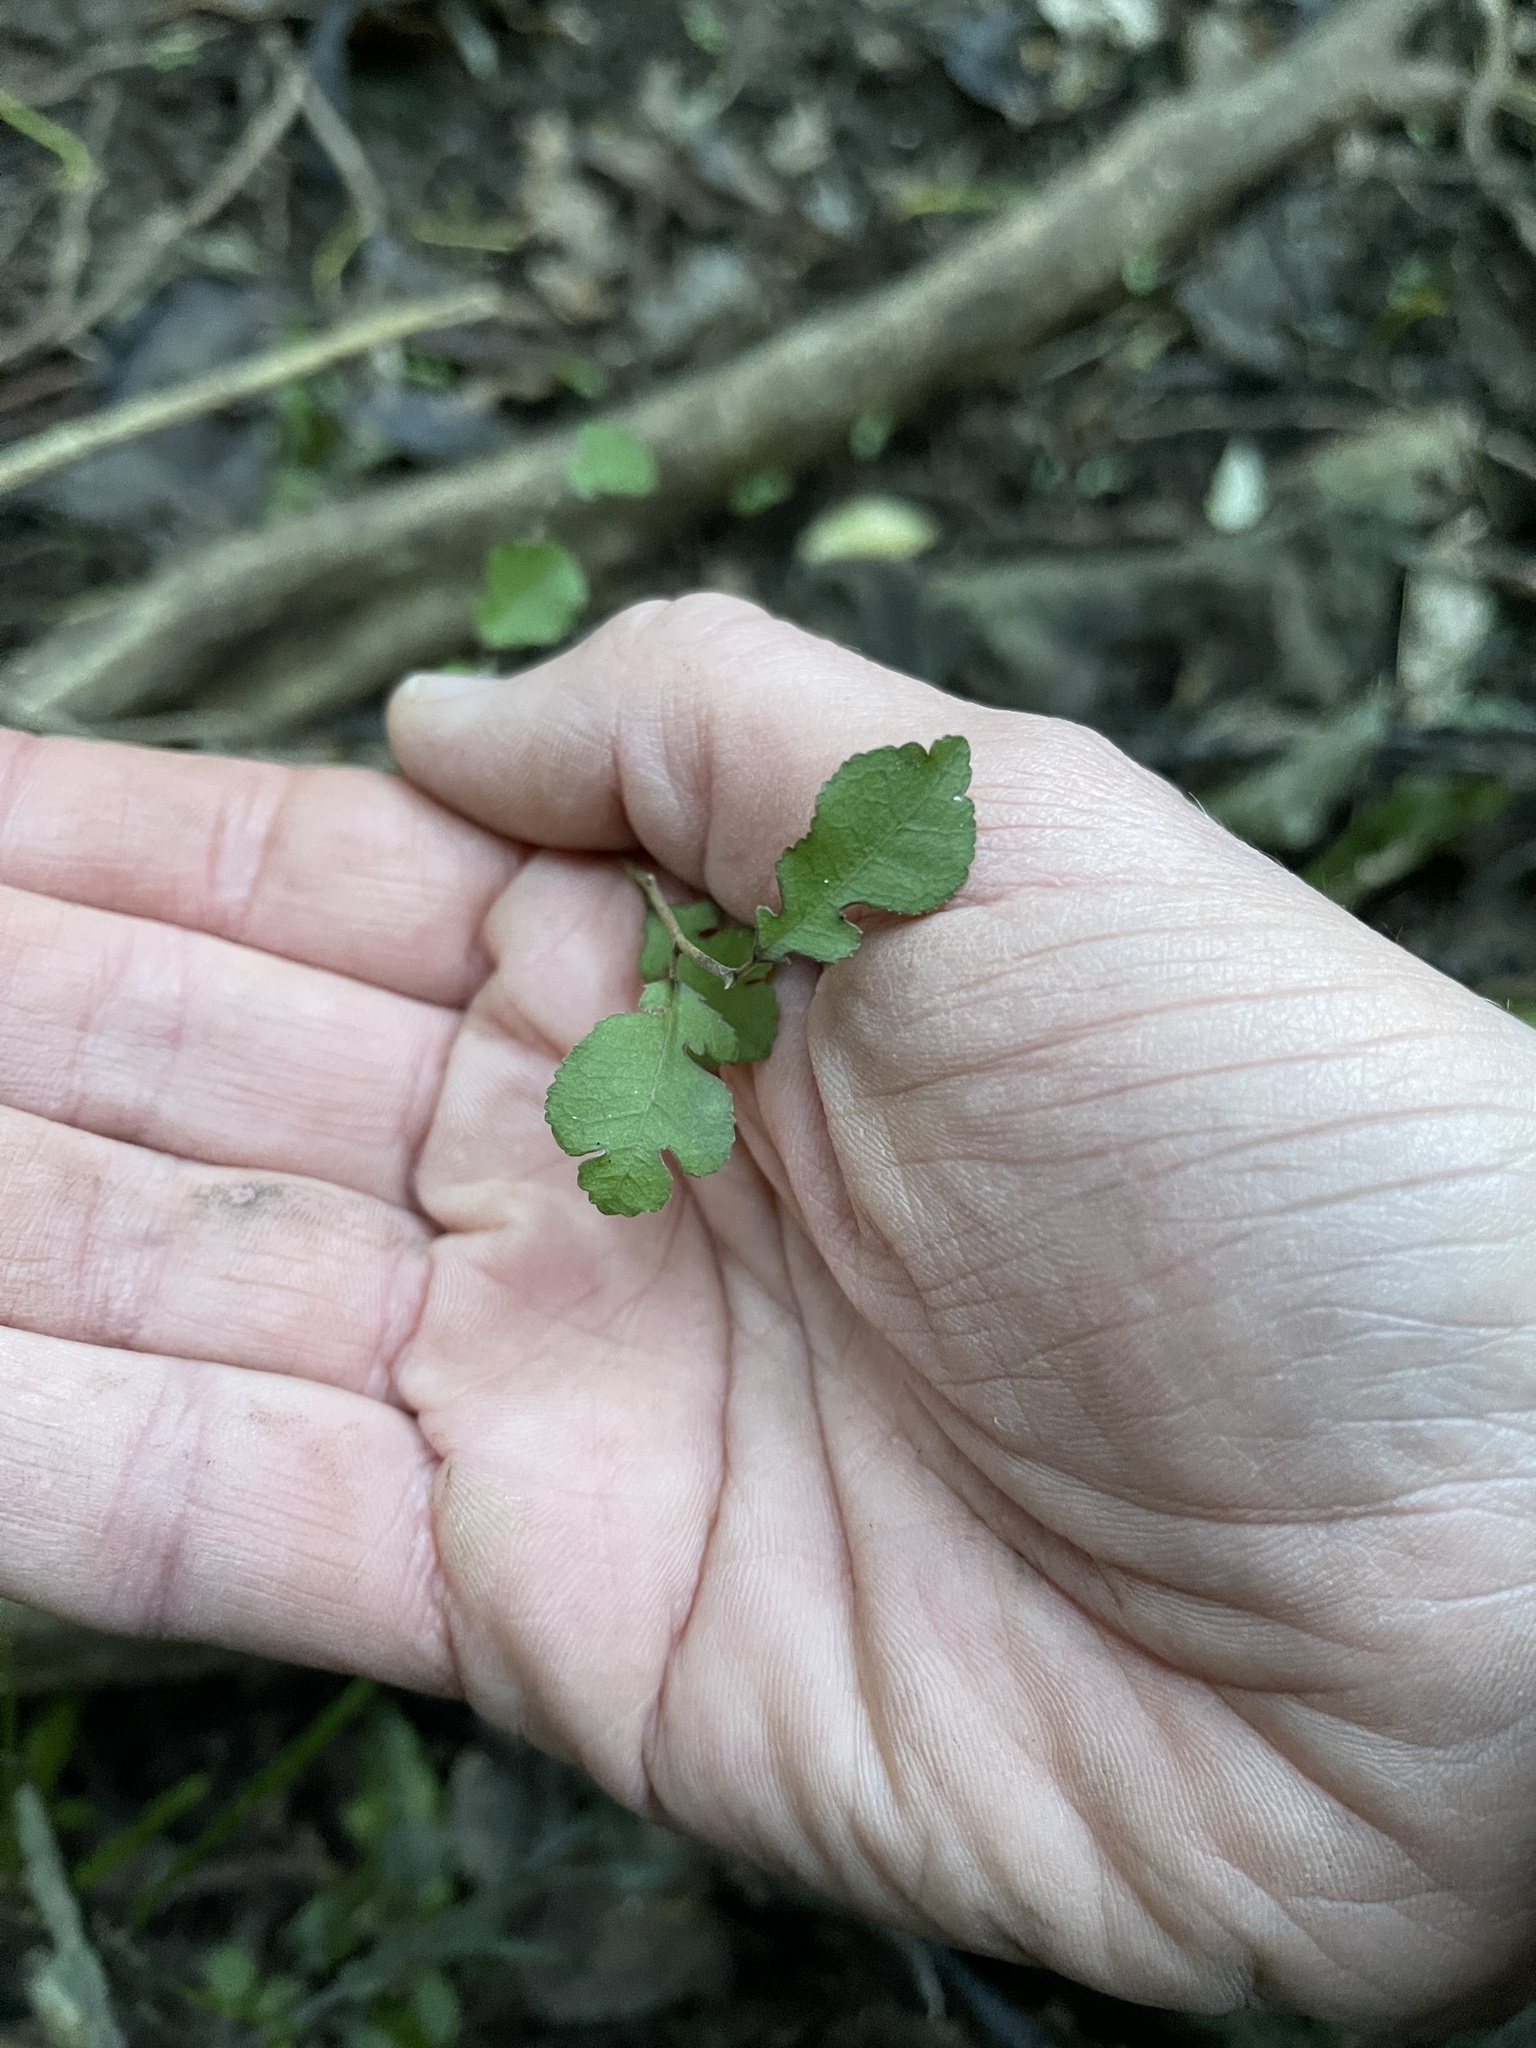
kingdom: Plantae
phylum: Tracheophyta
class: Magnoliopsida
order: Rosales
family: Moraceae
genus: Paratrophis
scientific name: Paratrophis microphylla
